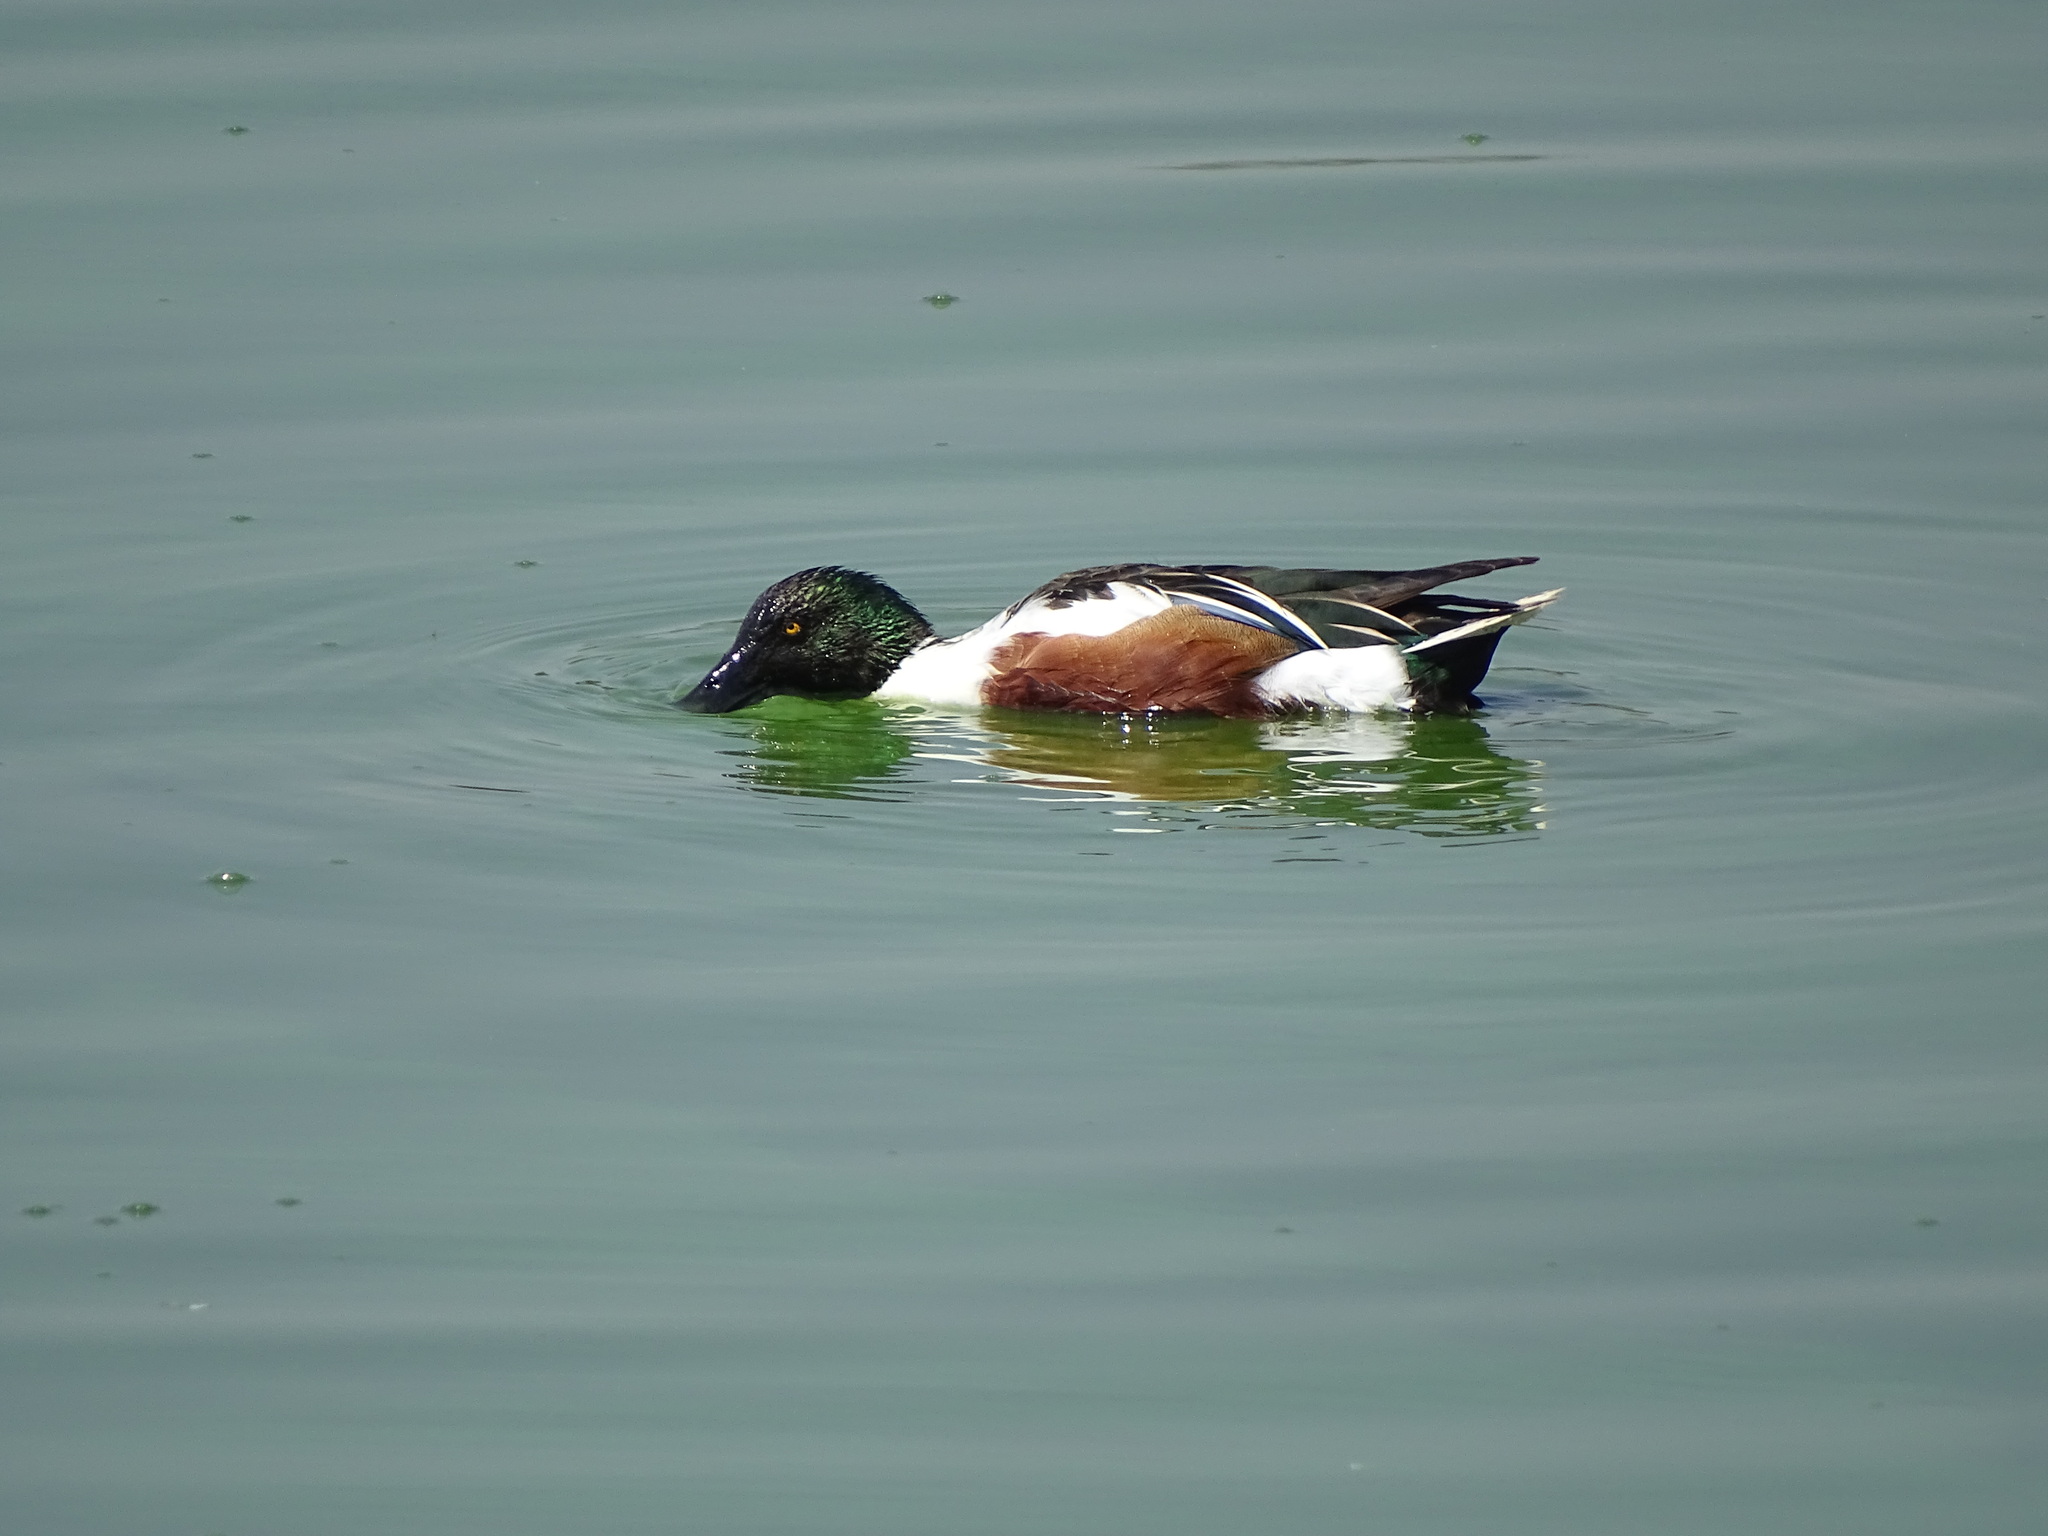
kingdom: Animalia
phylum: Chordata
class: Aves
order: Anseriformes
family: Anatidae
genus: Spatula
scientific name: Spatula clypeata
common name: Northern shoveler
